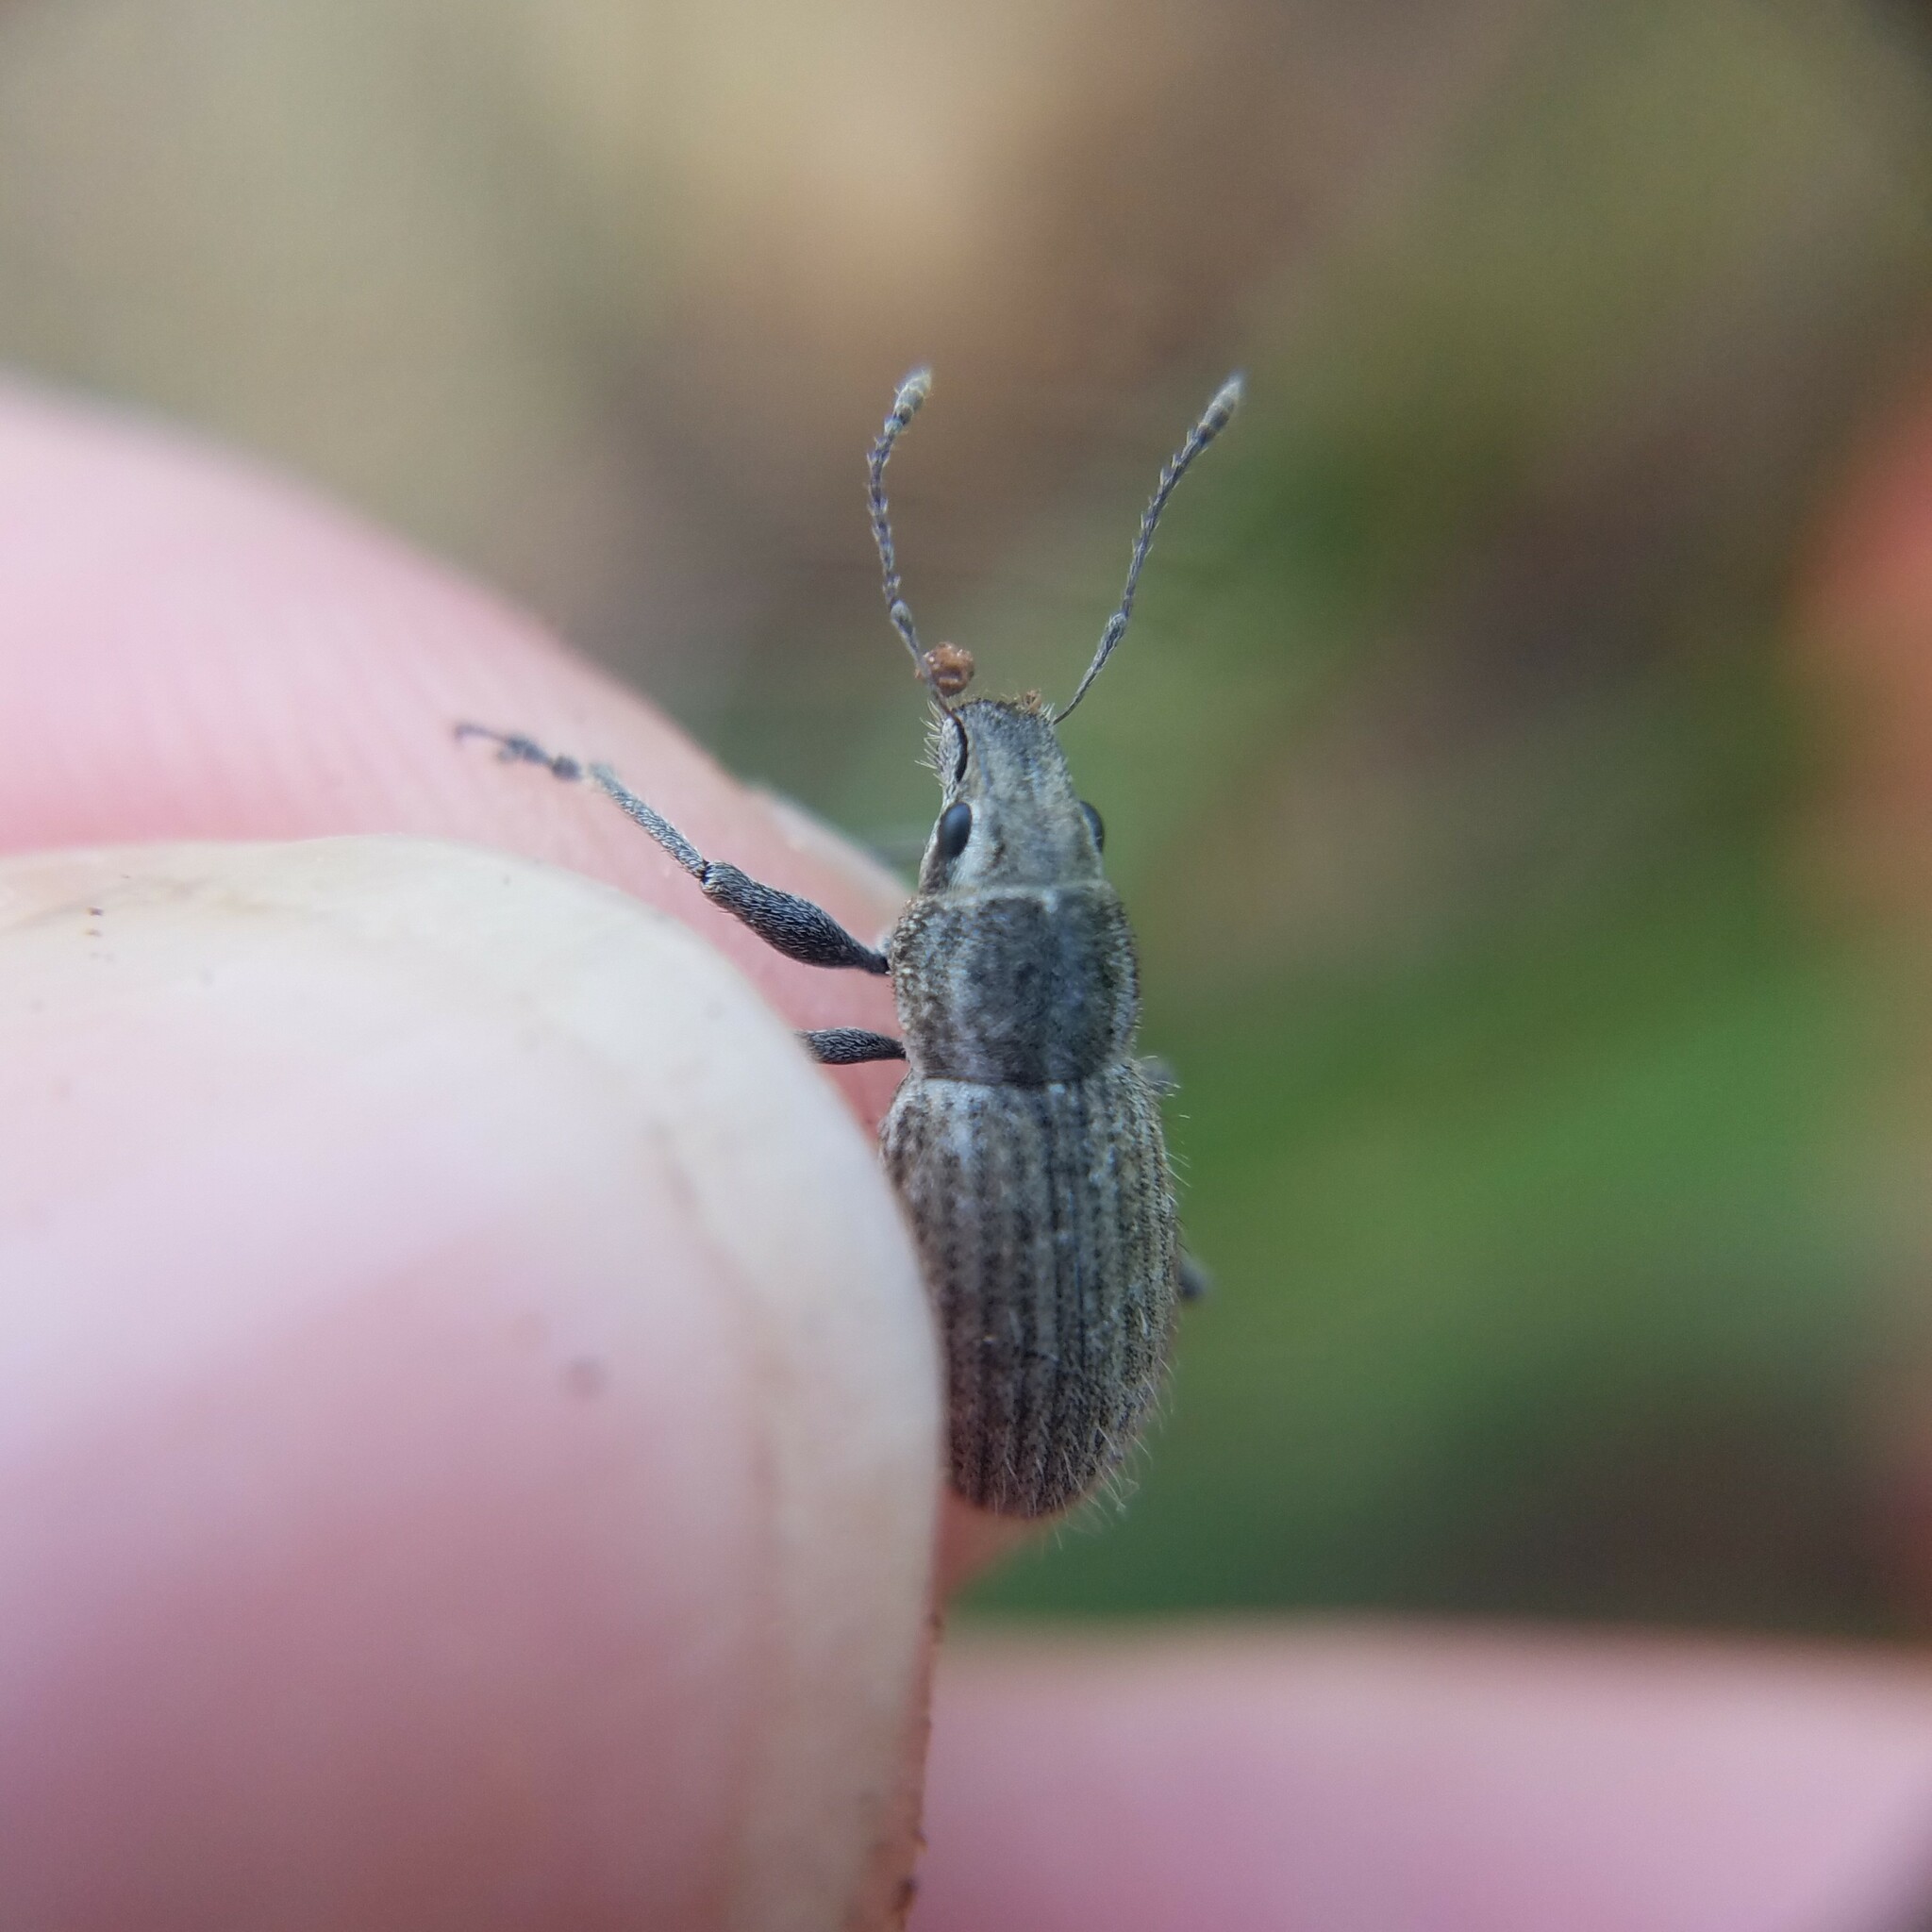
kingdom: Animalia
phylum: Arthropoda
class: Insecta
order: Coleoptera
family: Curculionidae
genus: Naupactus
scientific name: Naupactus leucoloma
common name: Whitefringed beetle
